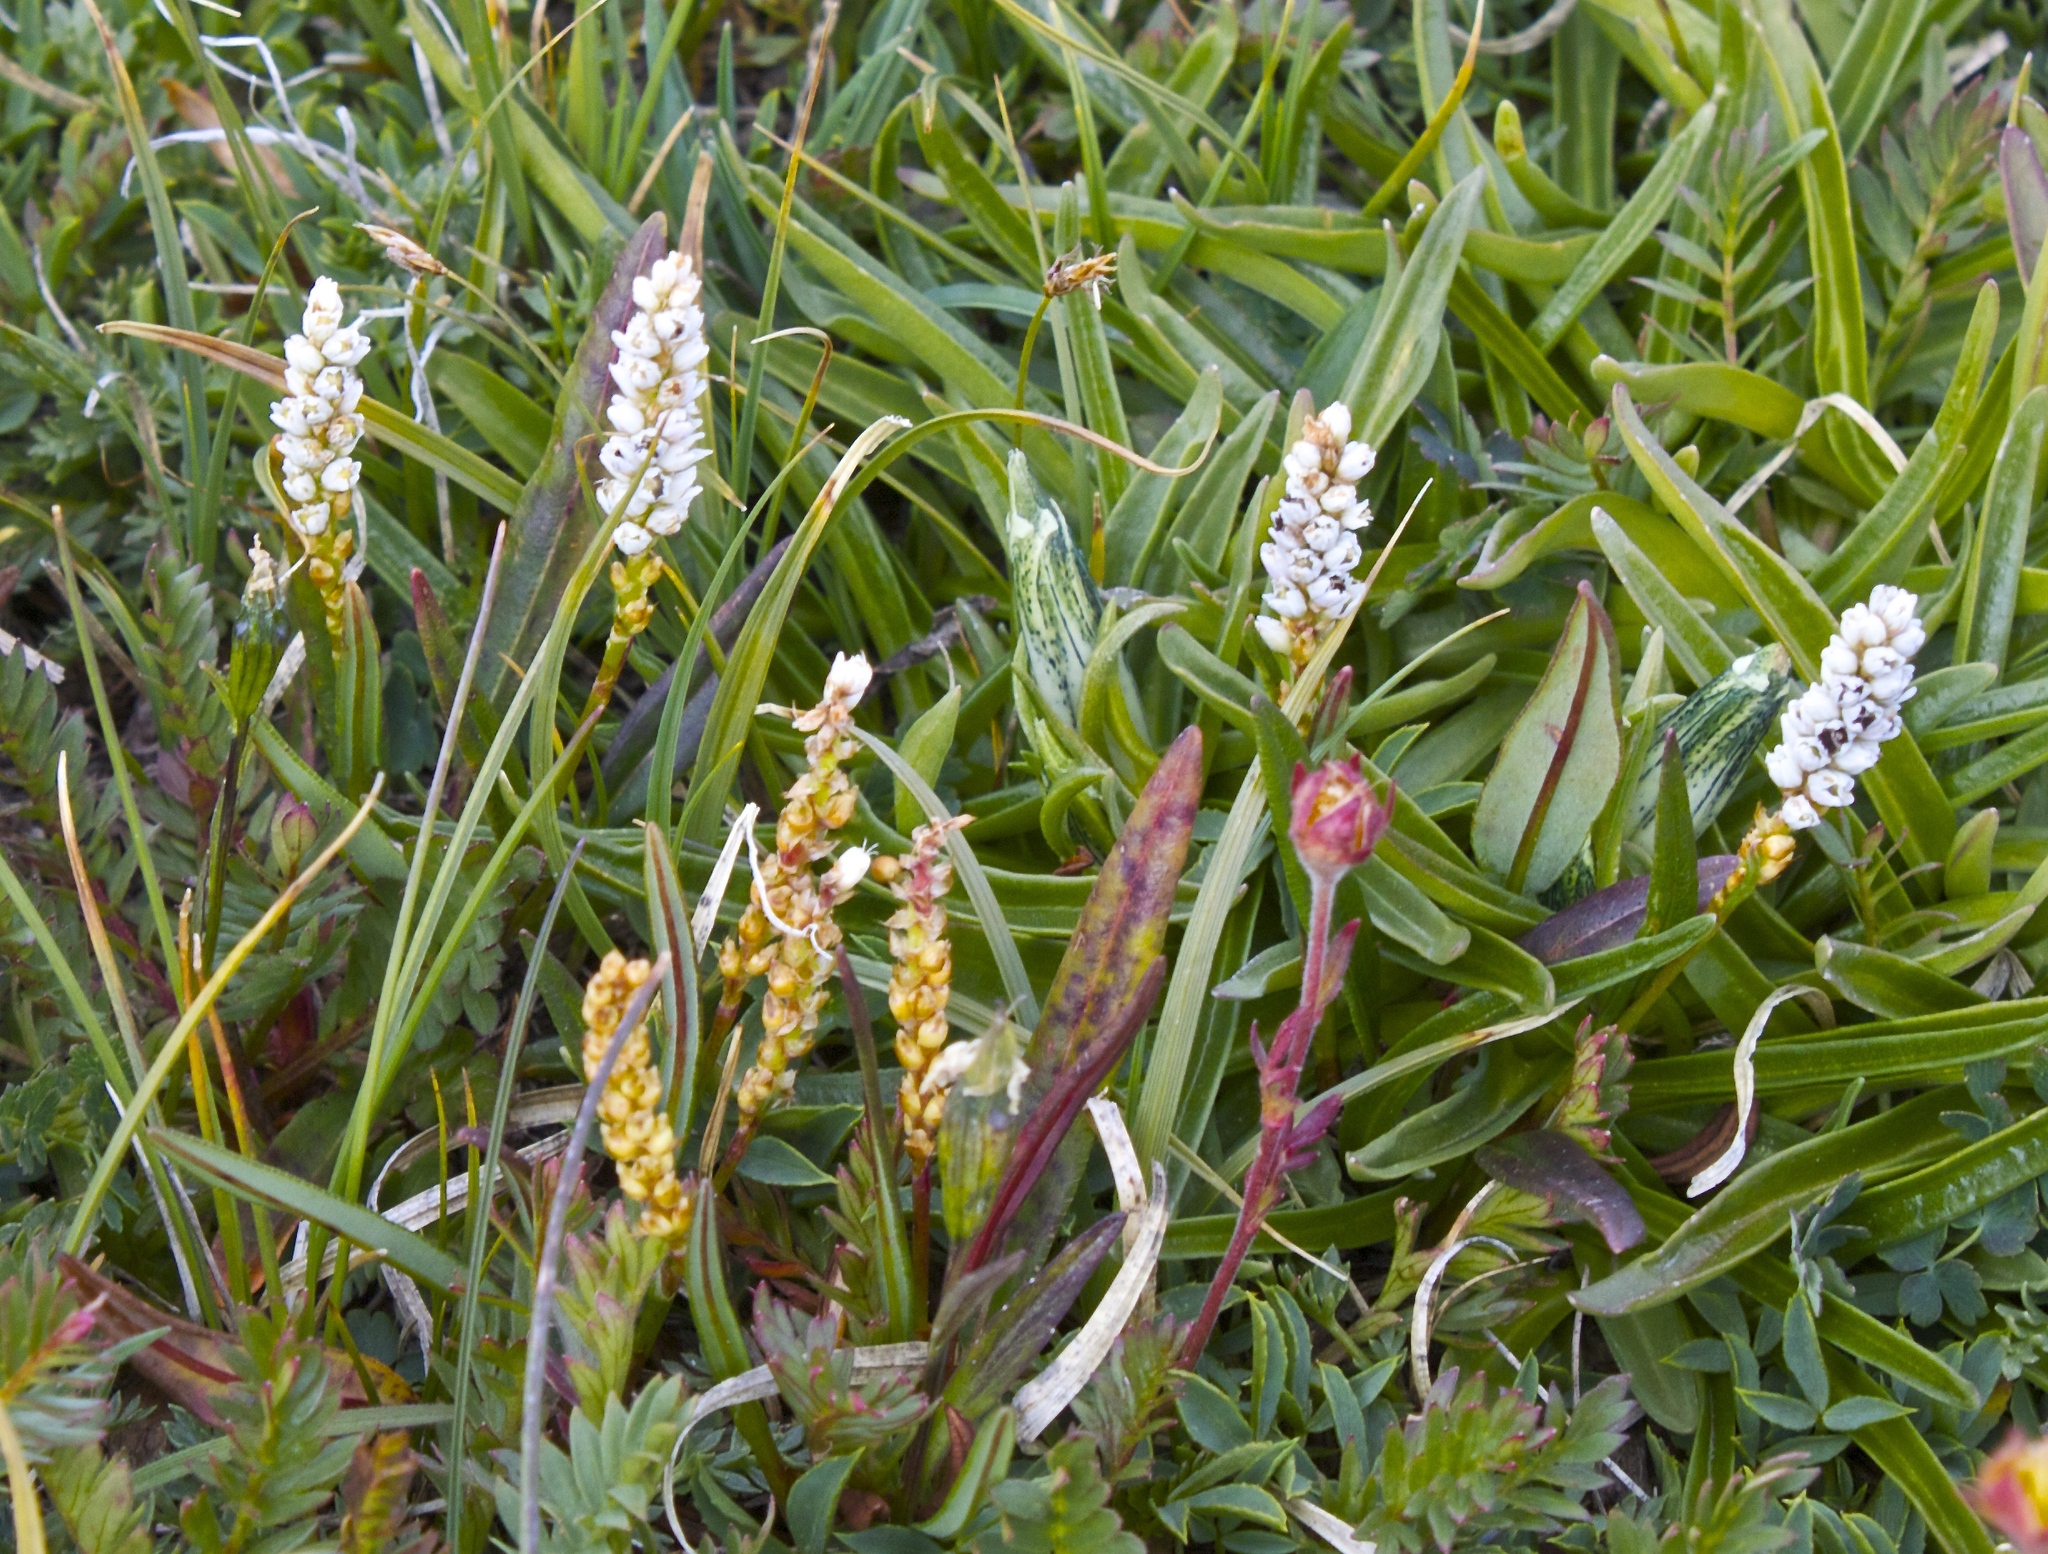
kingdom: Plantae
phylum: Tracheophyta
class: Magnoliopsida
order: Caryophyllales
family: Polygonaceae
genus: Bistorta
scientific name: Bistorta vivipara
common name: Alpine bistort
